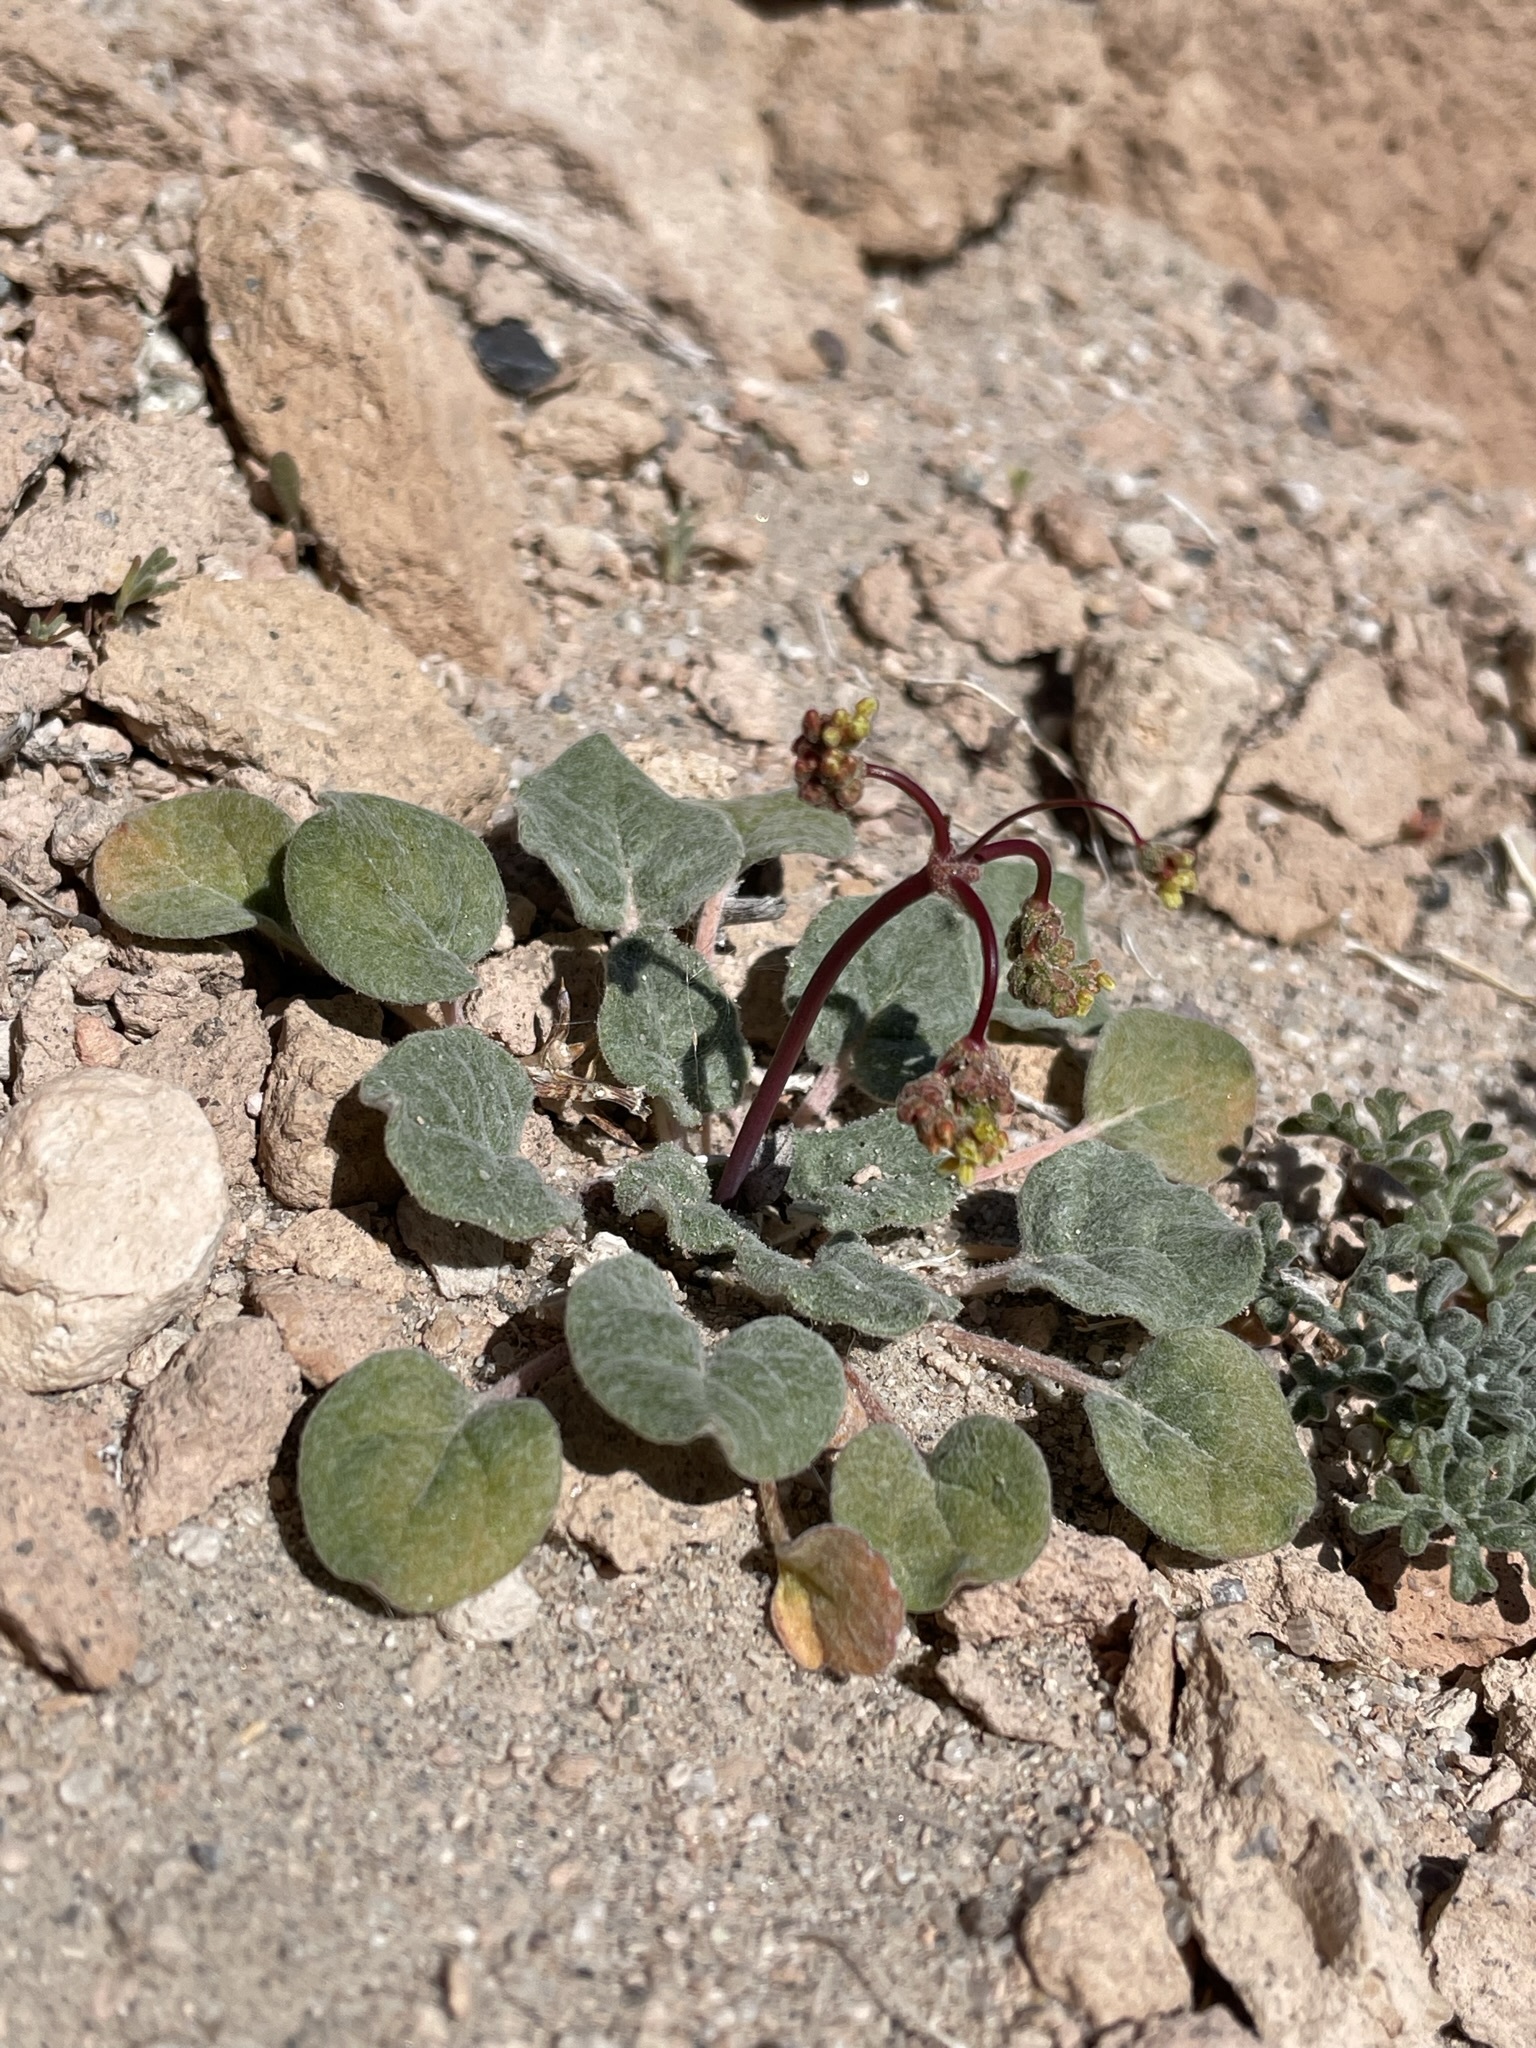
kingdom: Plantae
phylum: Tracheophyta
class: Magnoliopsida
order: Caryophyllales
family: Polygonaceae
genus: Eriogonum
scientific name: Eriogonum pusillum
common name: Yellow turbans
